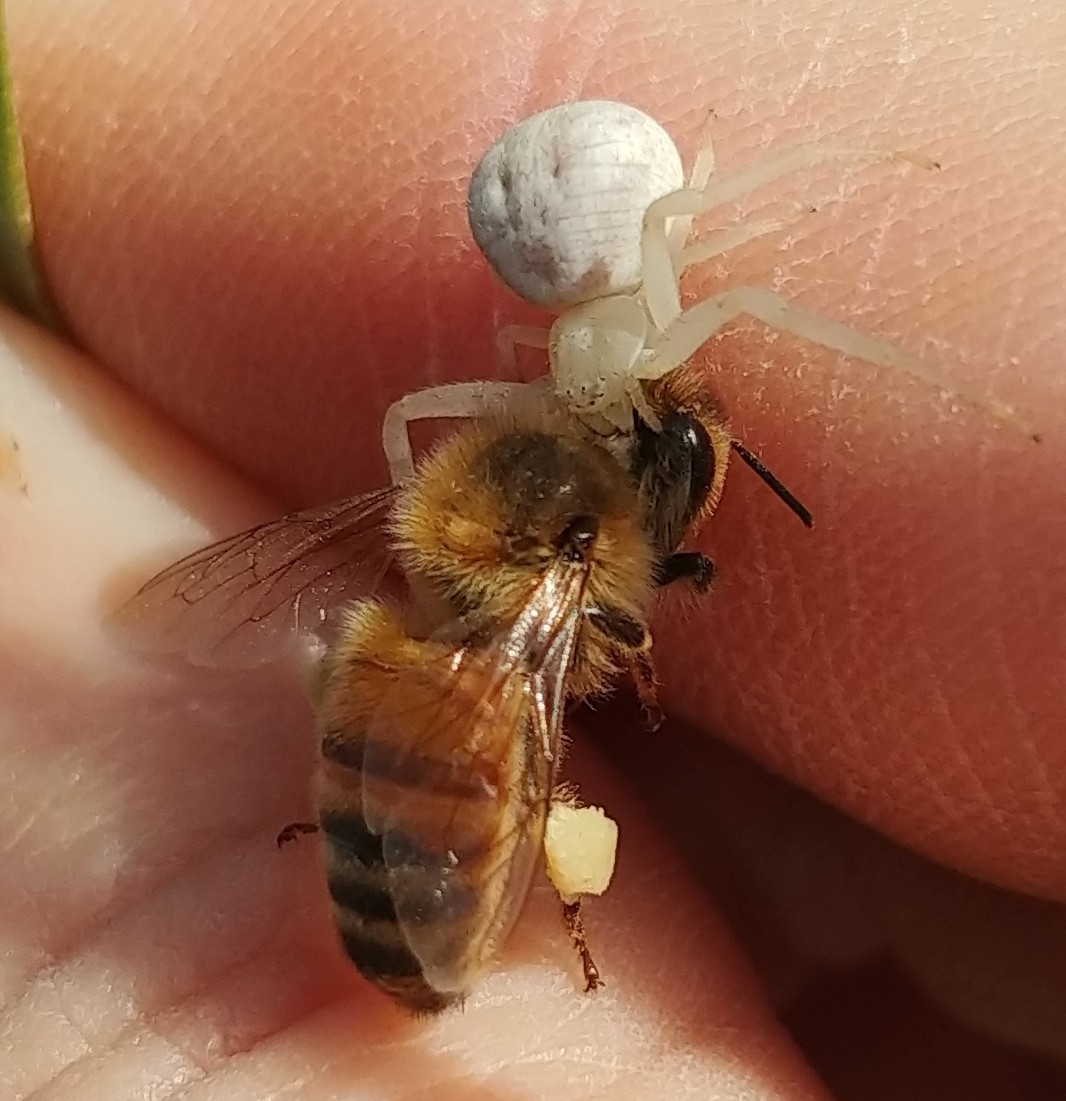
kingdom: Animalia
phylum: Arthropoda
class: Arachnida
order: Araneae
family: Thomisidae
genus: Misumena
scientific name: Misumena vatia
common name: Goldenrod crab spider
